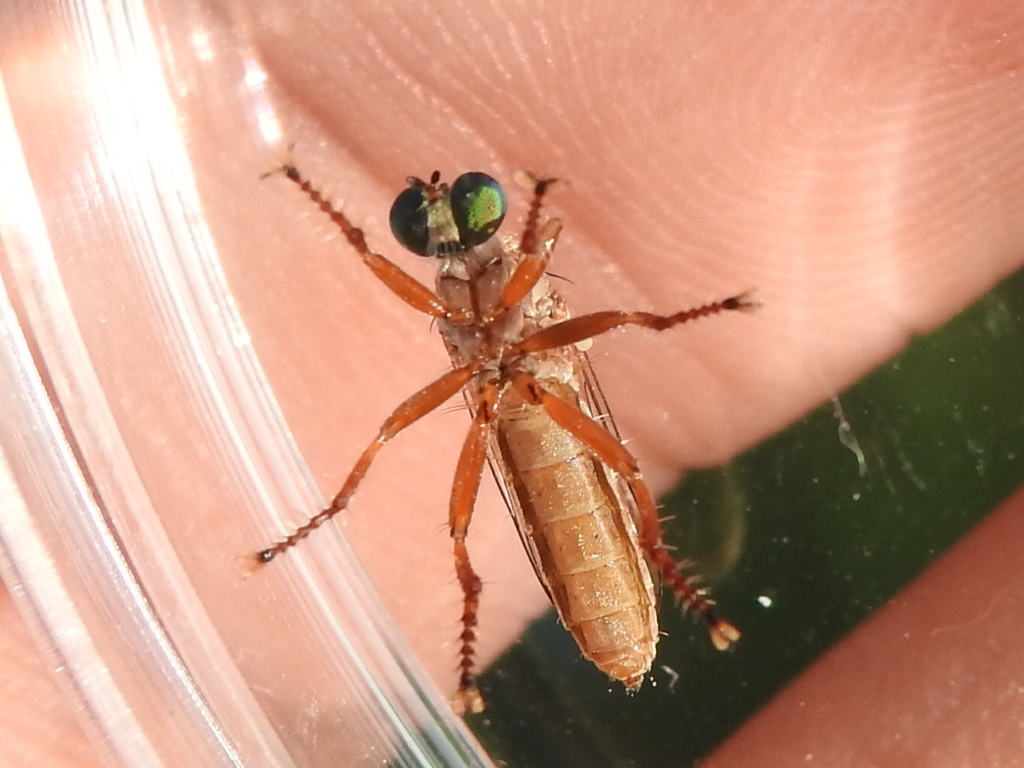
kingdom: Animalia
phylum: Arthropoda
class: Insecta
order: Diptera
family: Asilidae
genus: Psilocurus
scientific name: Psilocurus nudiusculus
